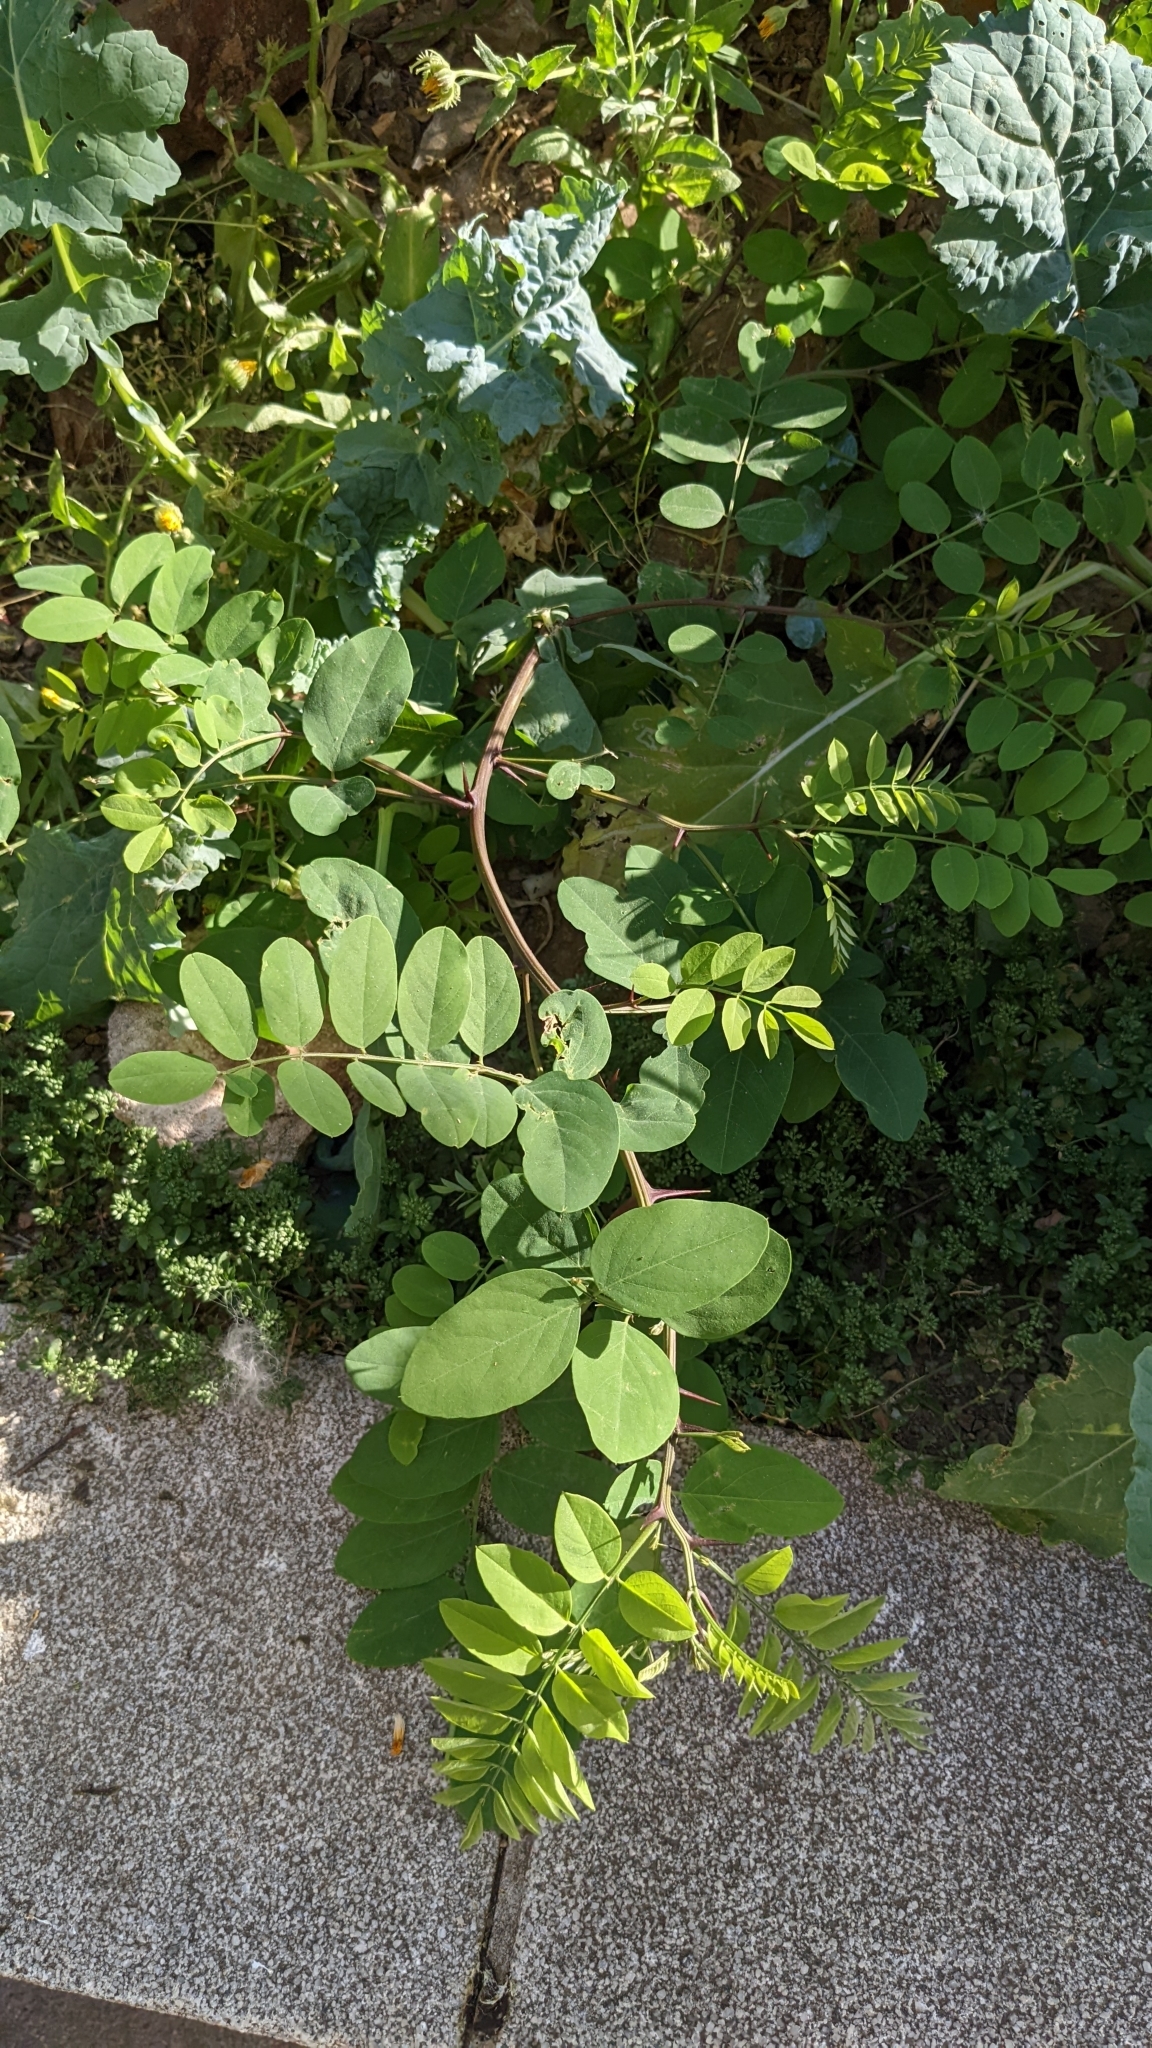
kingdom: Plantae
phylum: Tracheophyta
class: Magnoliopsida
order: Fabales
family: Fabaceae
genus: Robinia
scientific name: Robinia pseudoacacia
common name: Black locust
